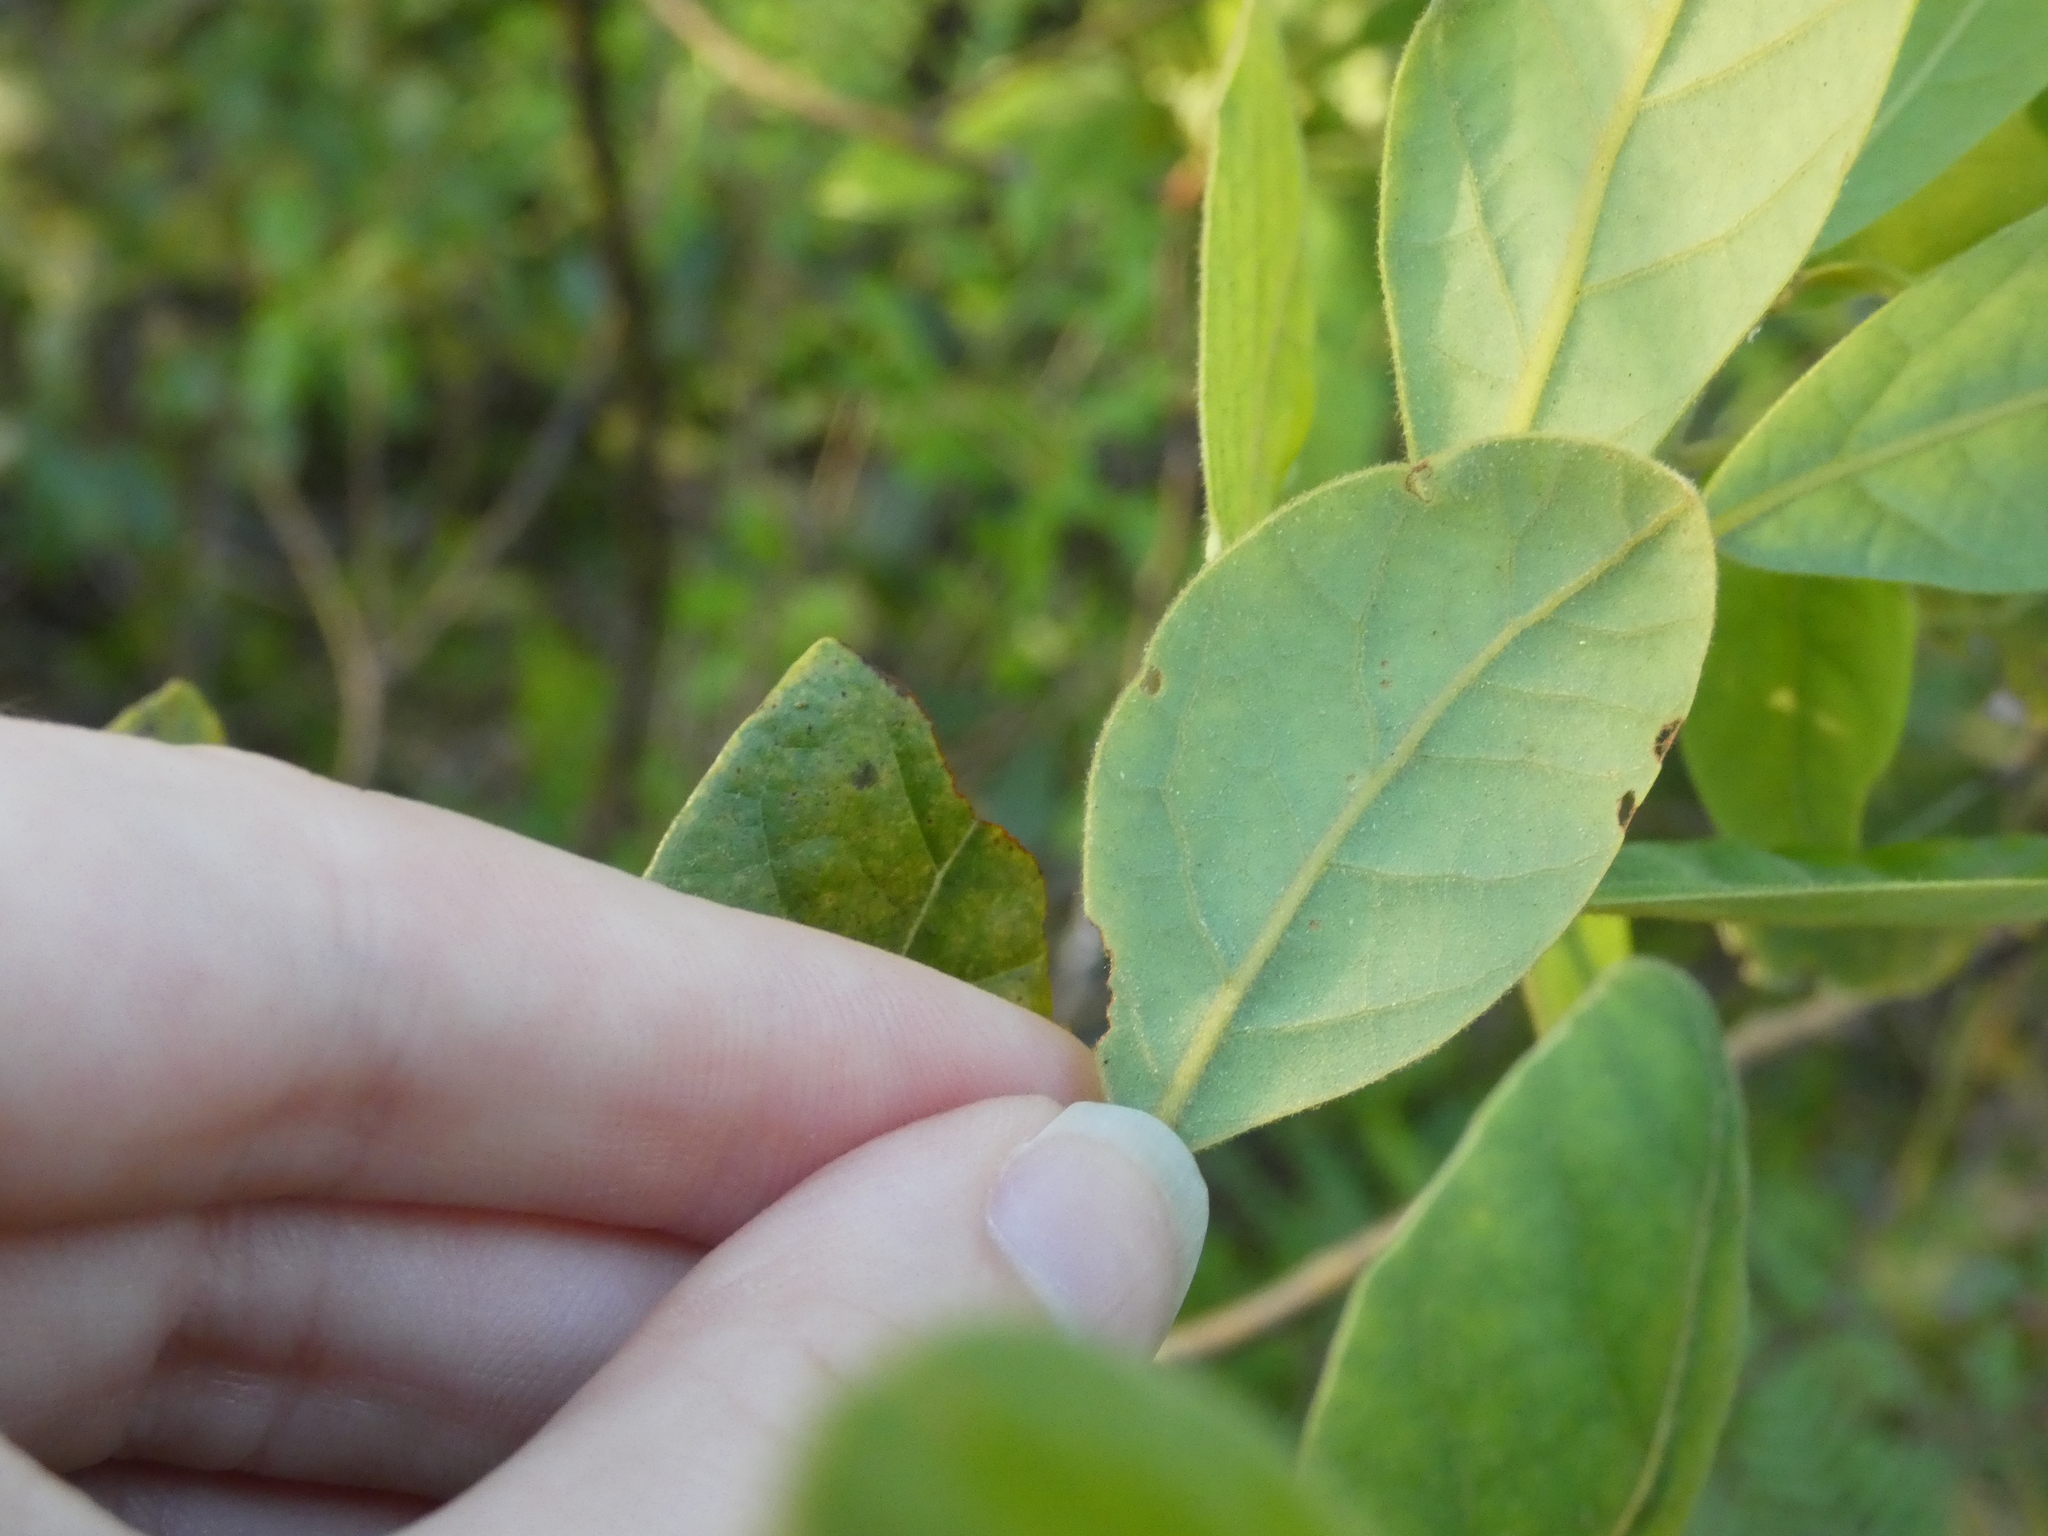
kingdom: Plantae
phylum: Tracheophyta
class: Magnoliopsida
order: Laurales
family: Lauraceae
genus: Persea
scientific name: Persea palustris
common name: Swampbay
